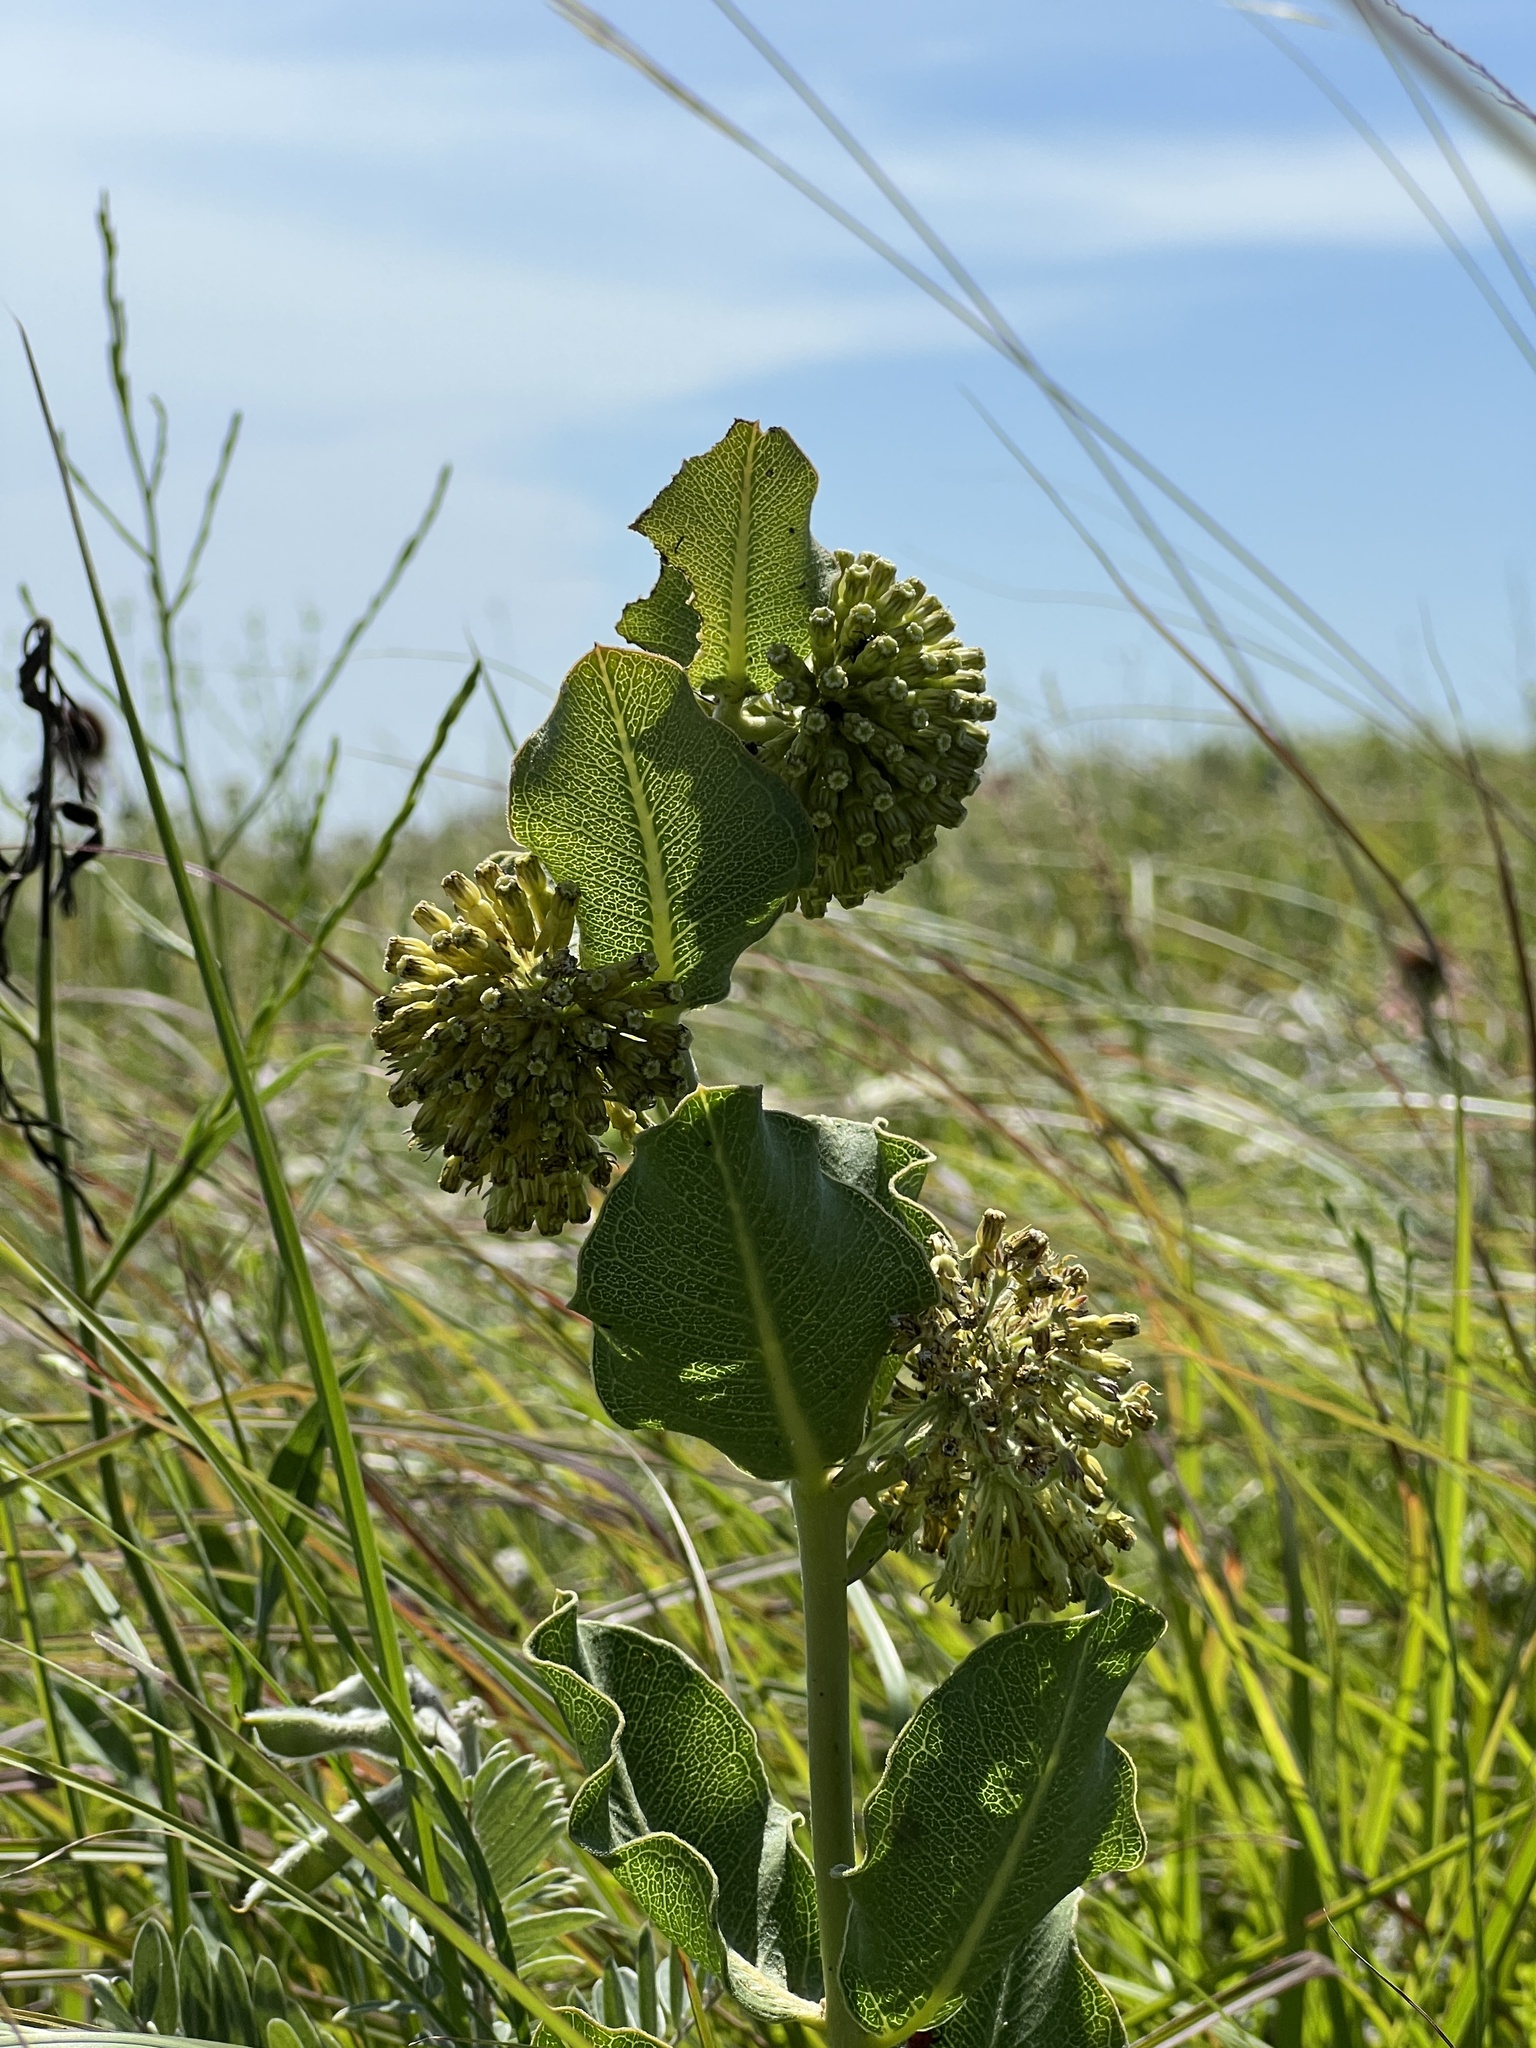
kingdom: Plantae
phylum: Tracheophyta
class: Magnoliopsida
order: Gentianales
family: Apocynaceae
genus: Asclepias
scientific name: Asclepias viridiflora
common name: Green comet milkweed
